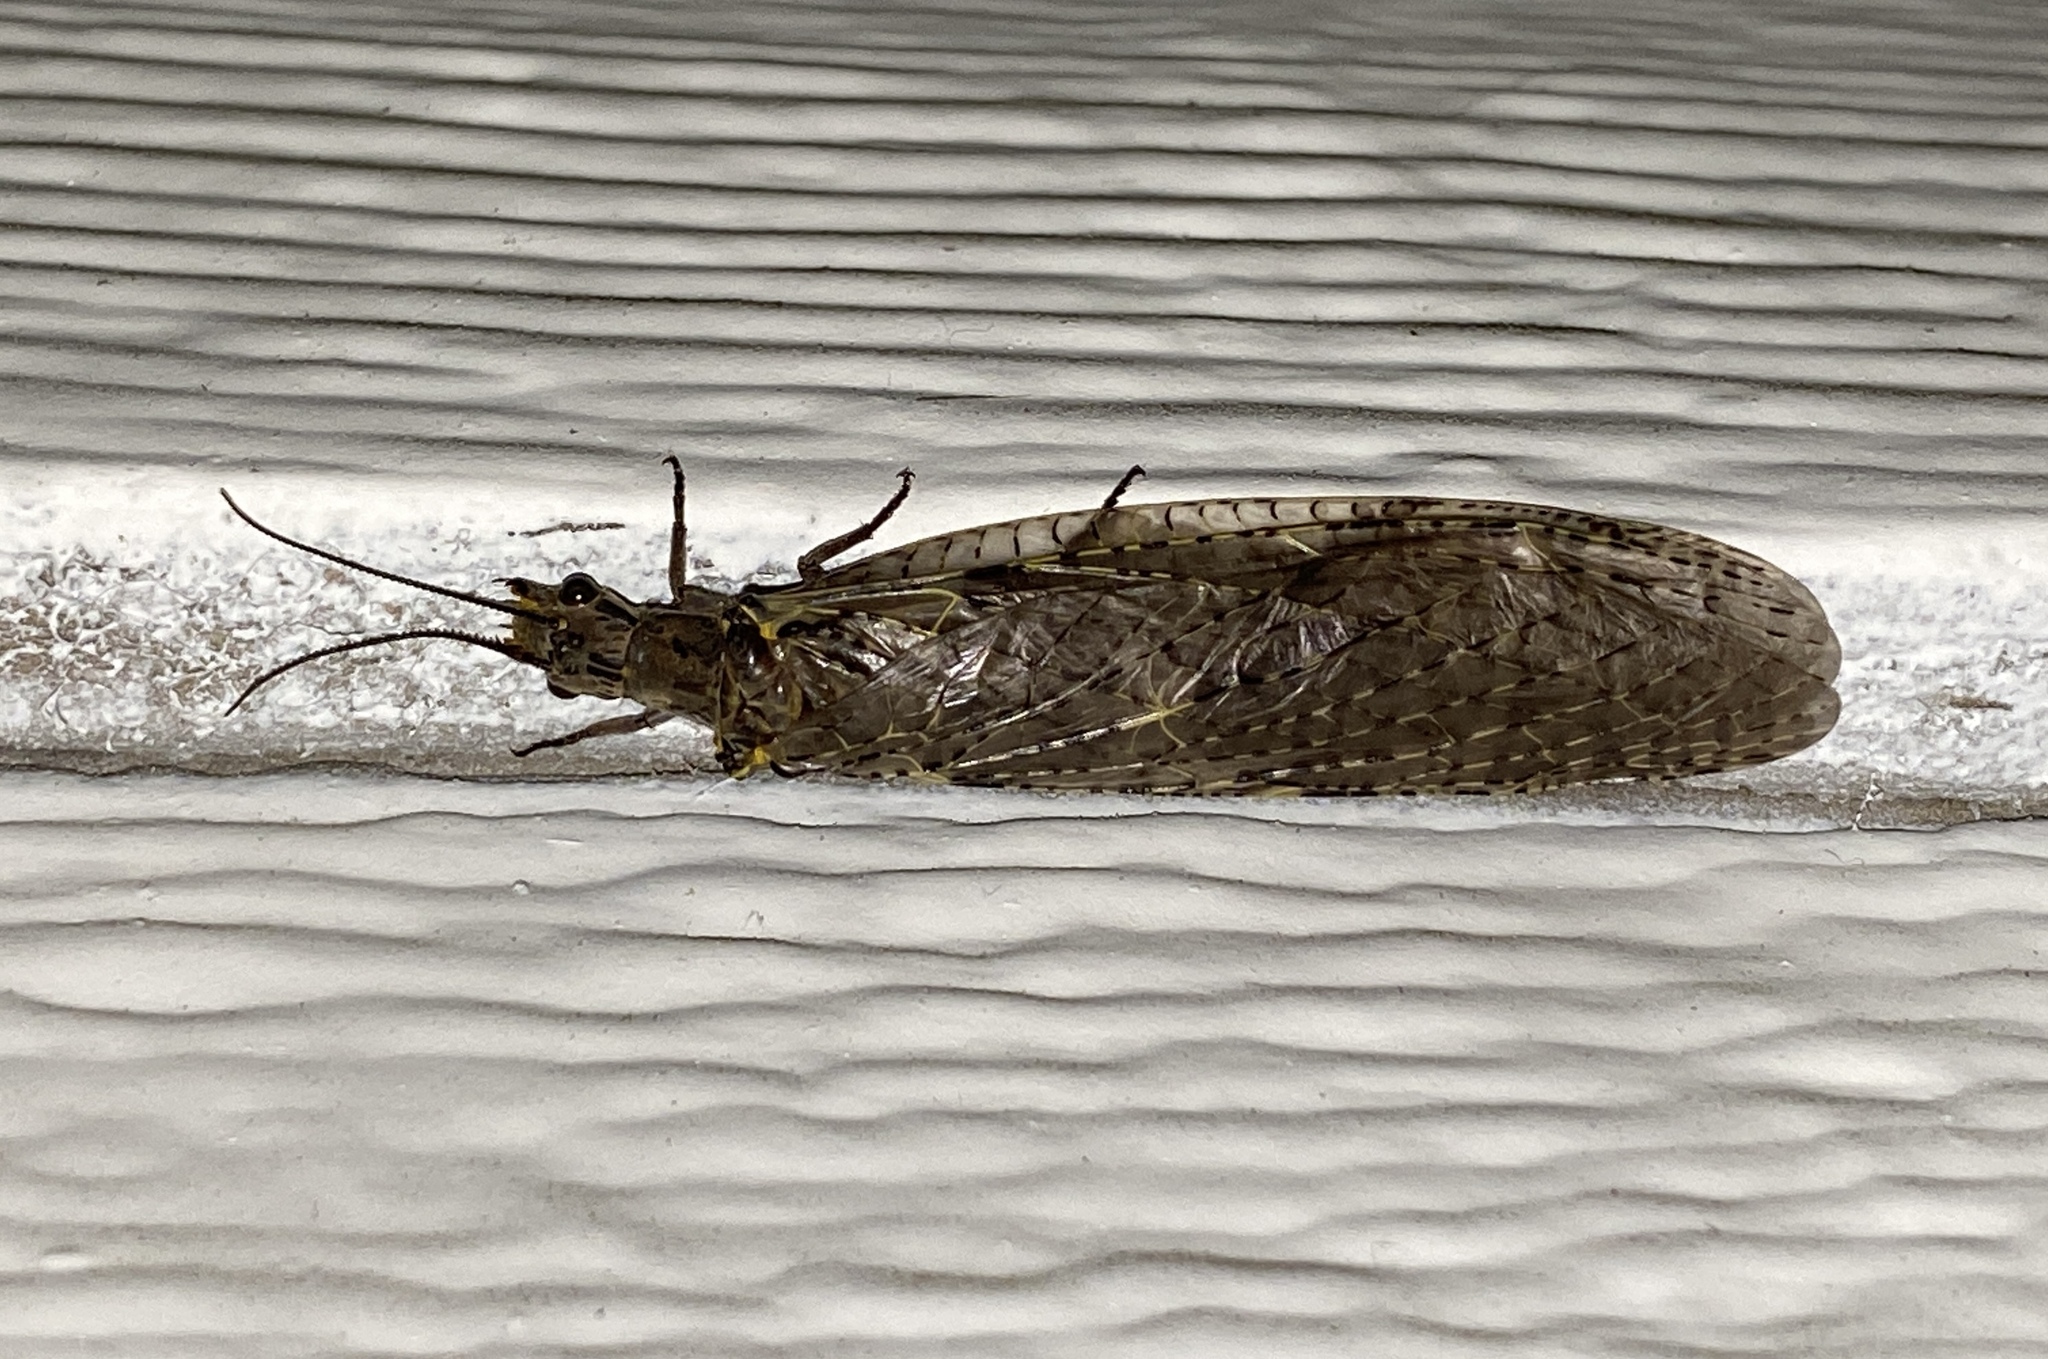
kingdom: Animalia
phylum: Arthropoda
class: Insecta
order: Megaloptera
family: Corydalidae
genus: Chauliodes
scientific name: Chauliodes rastricornis
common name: Spring fishfly
